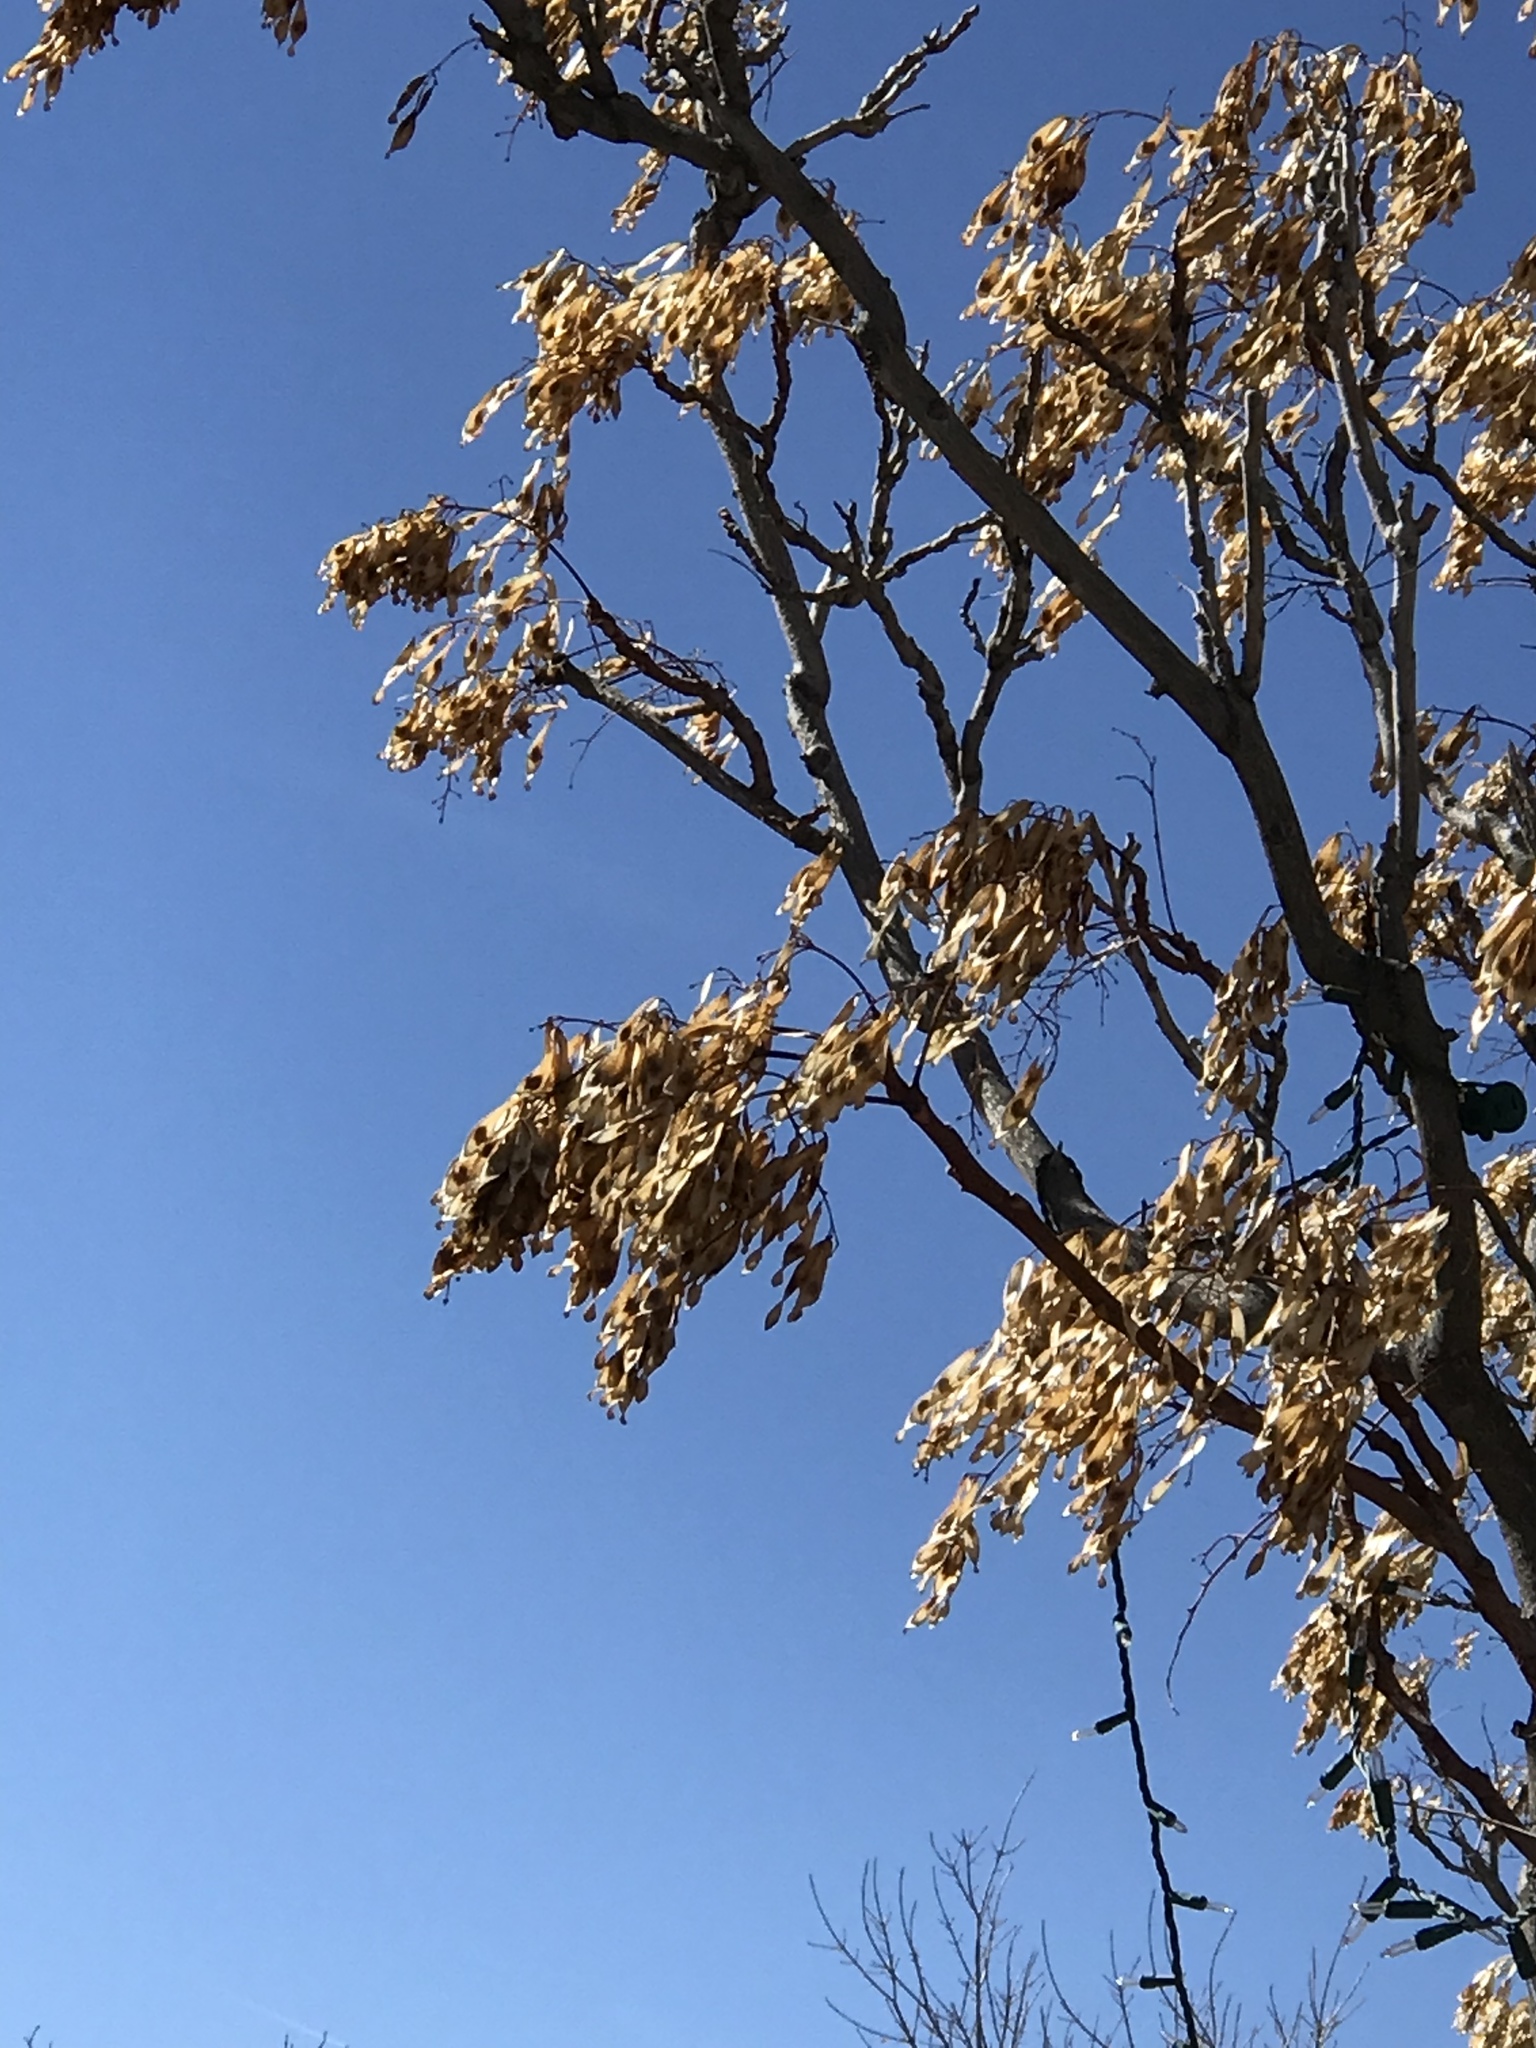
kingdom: Plantae
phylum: Tracheophyta
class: Magnoliopsida
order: Sapindales
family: Simaroubaceae
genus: Ailanthus
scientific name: Ailanthus altissima
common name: Tree-of-heaven
